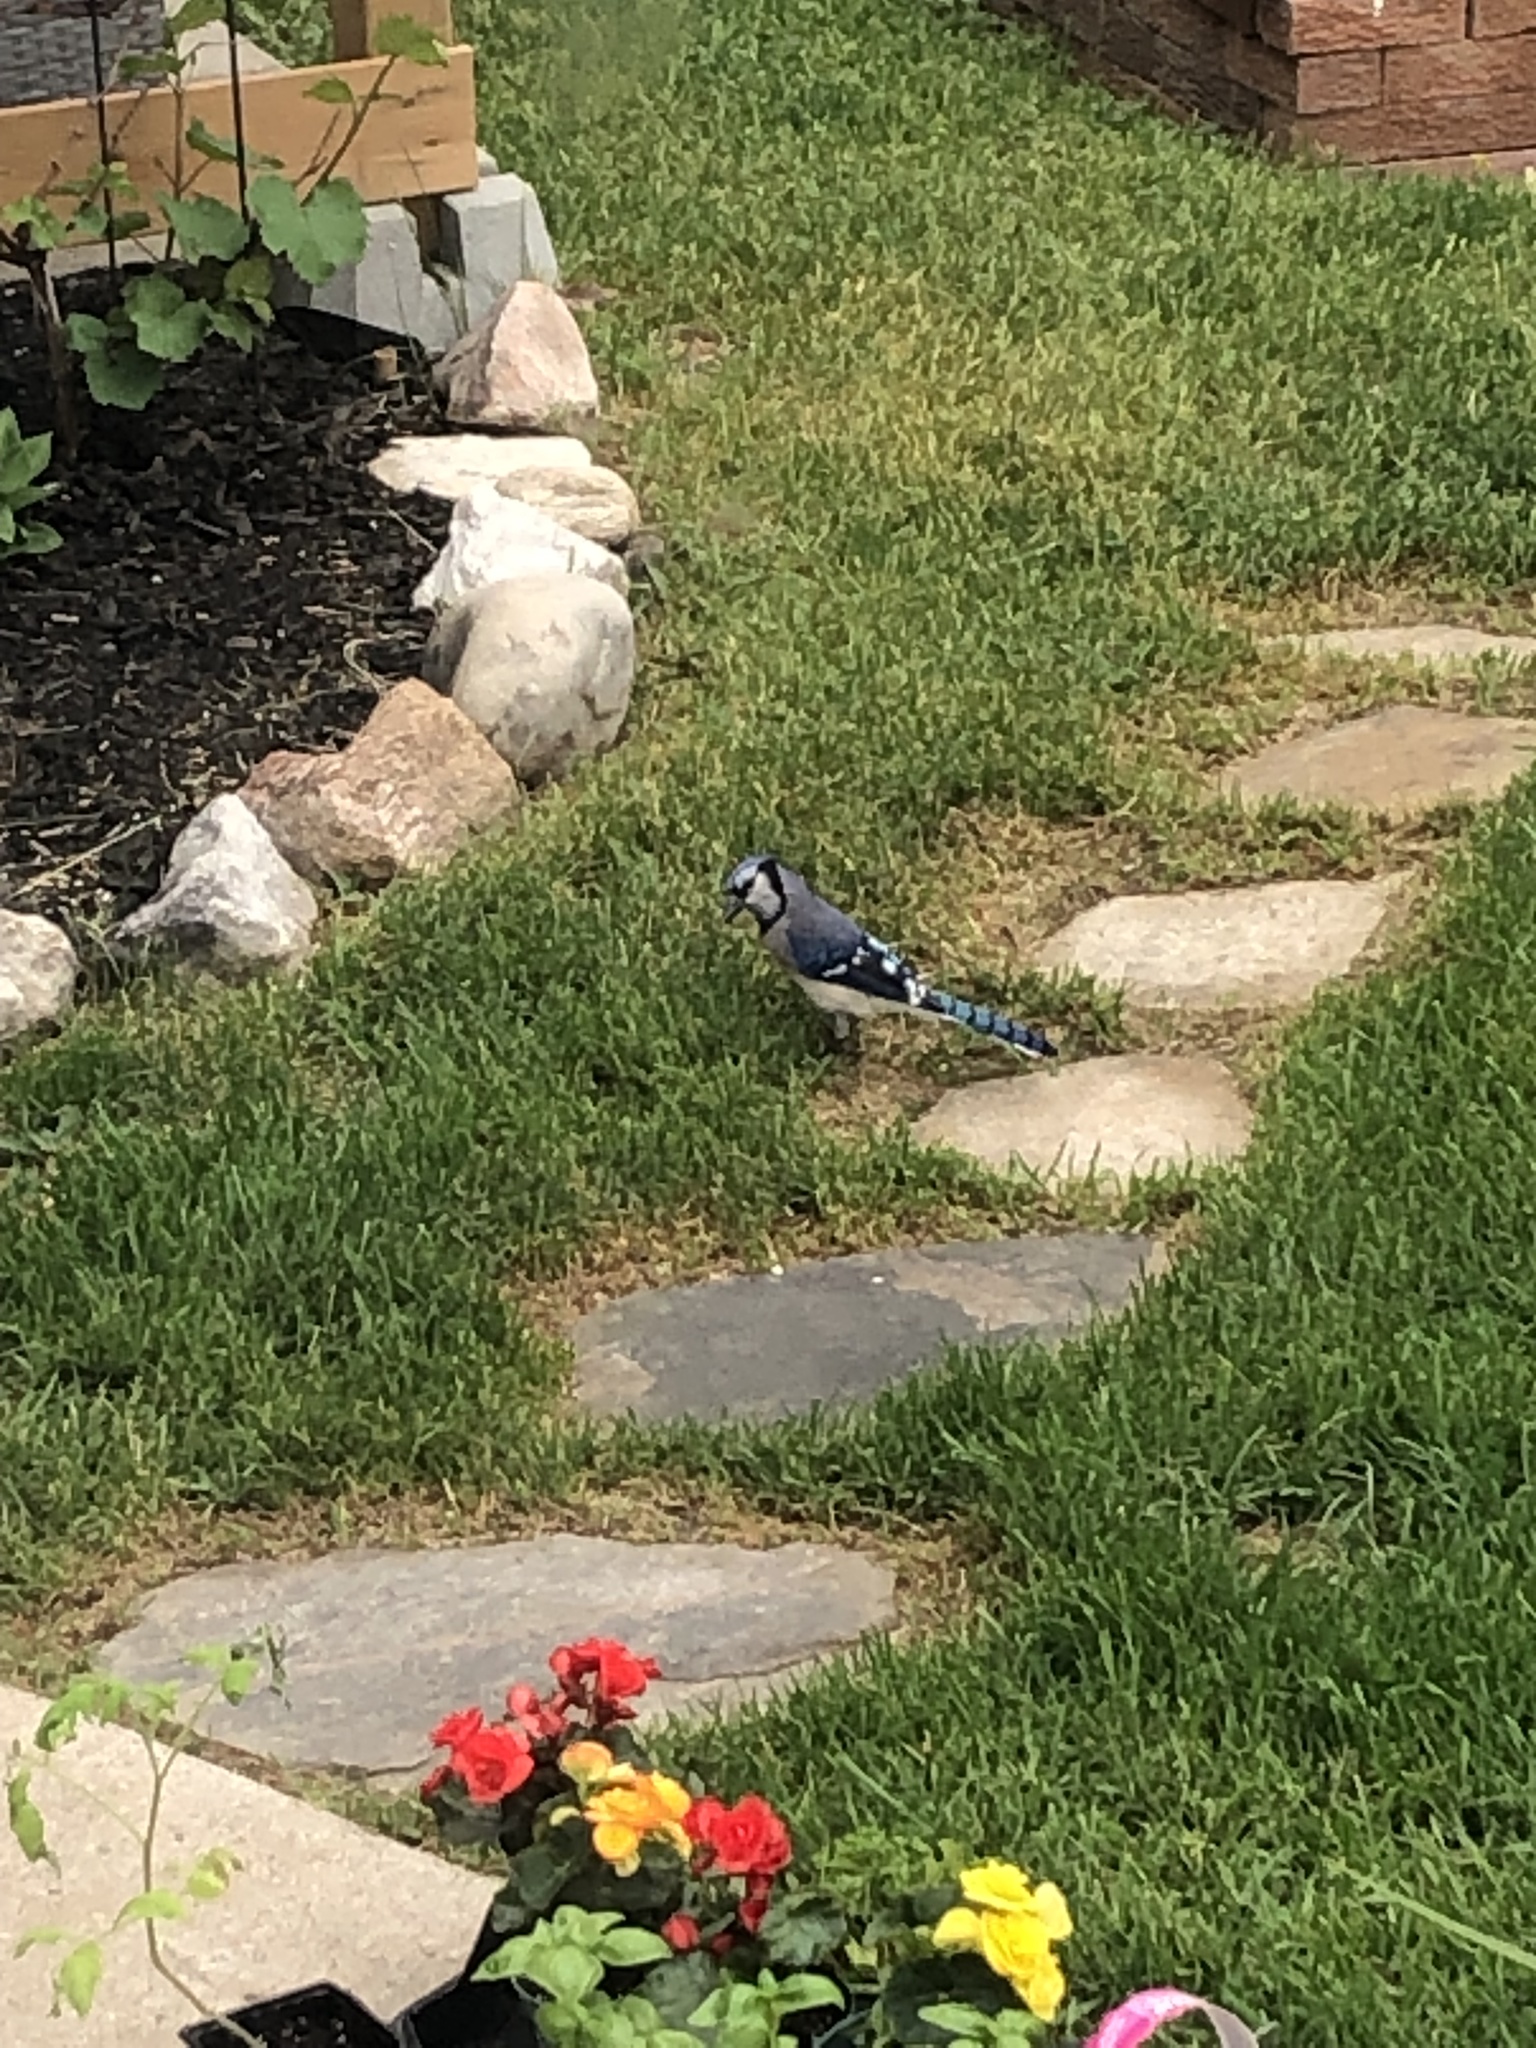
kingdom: Animalia
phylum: Chordata
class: Aves
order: Passeriformes
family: Corvidae
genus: Cyanocitta
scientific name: Cyanocitta cristata
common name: Blue jay
